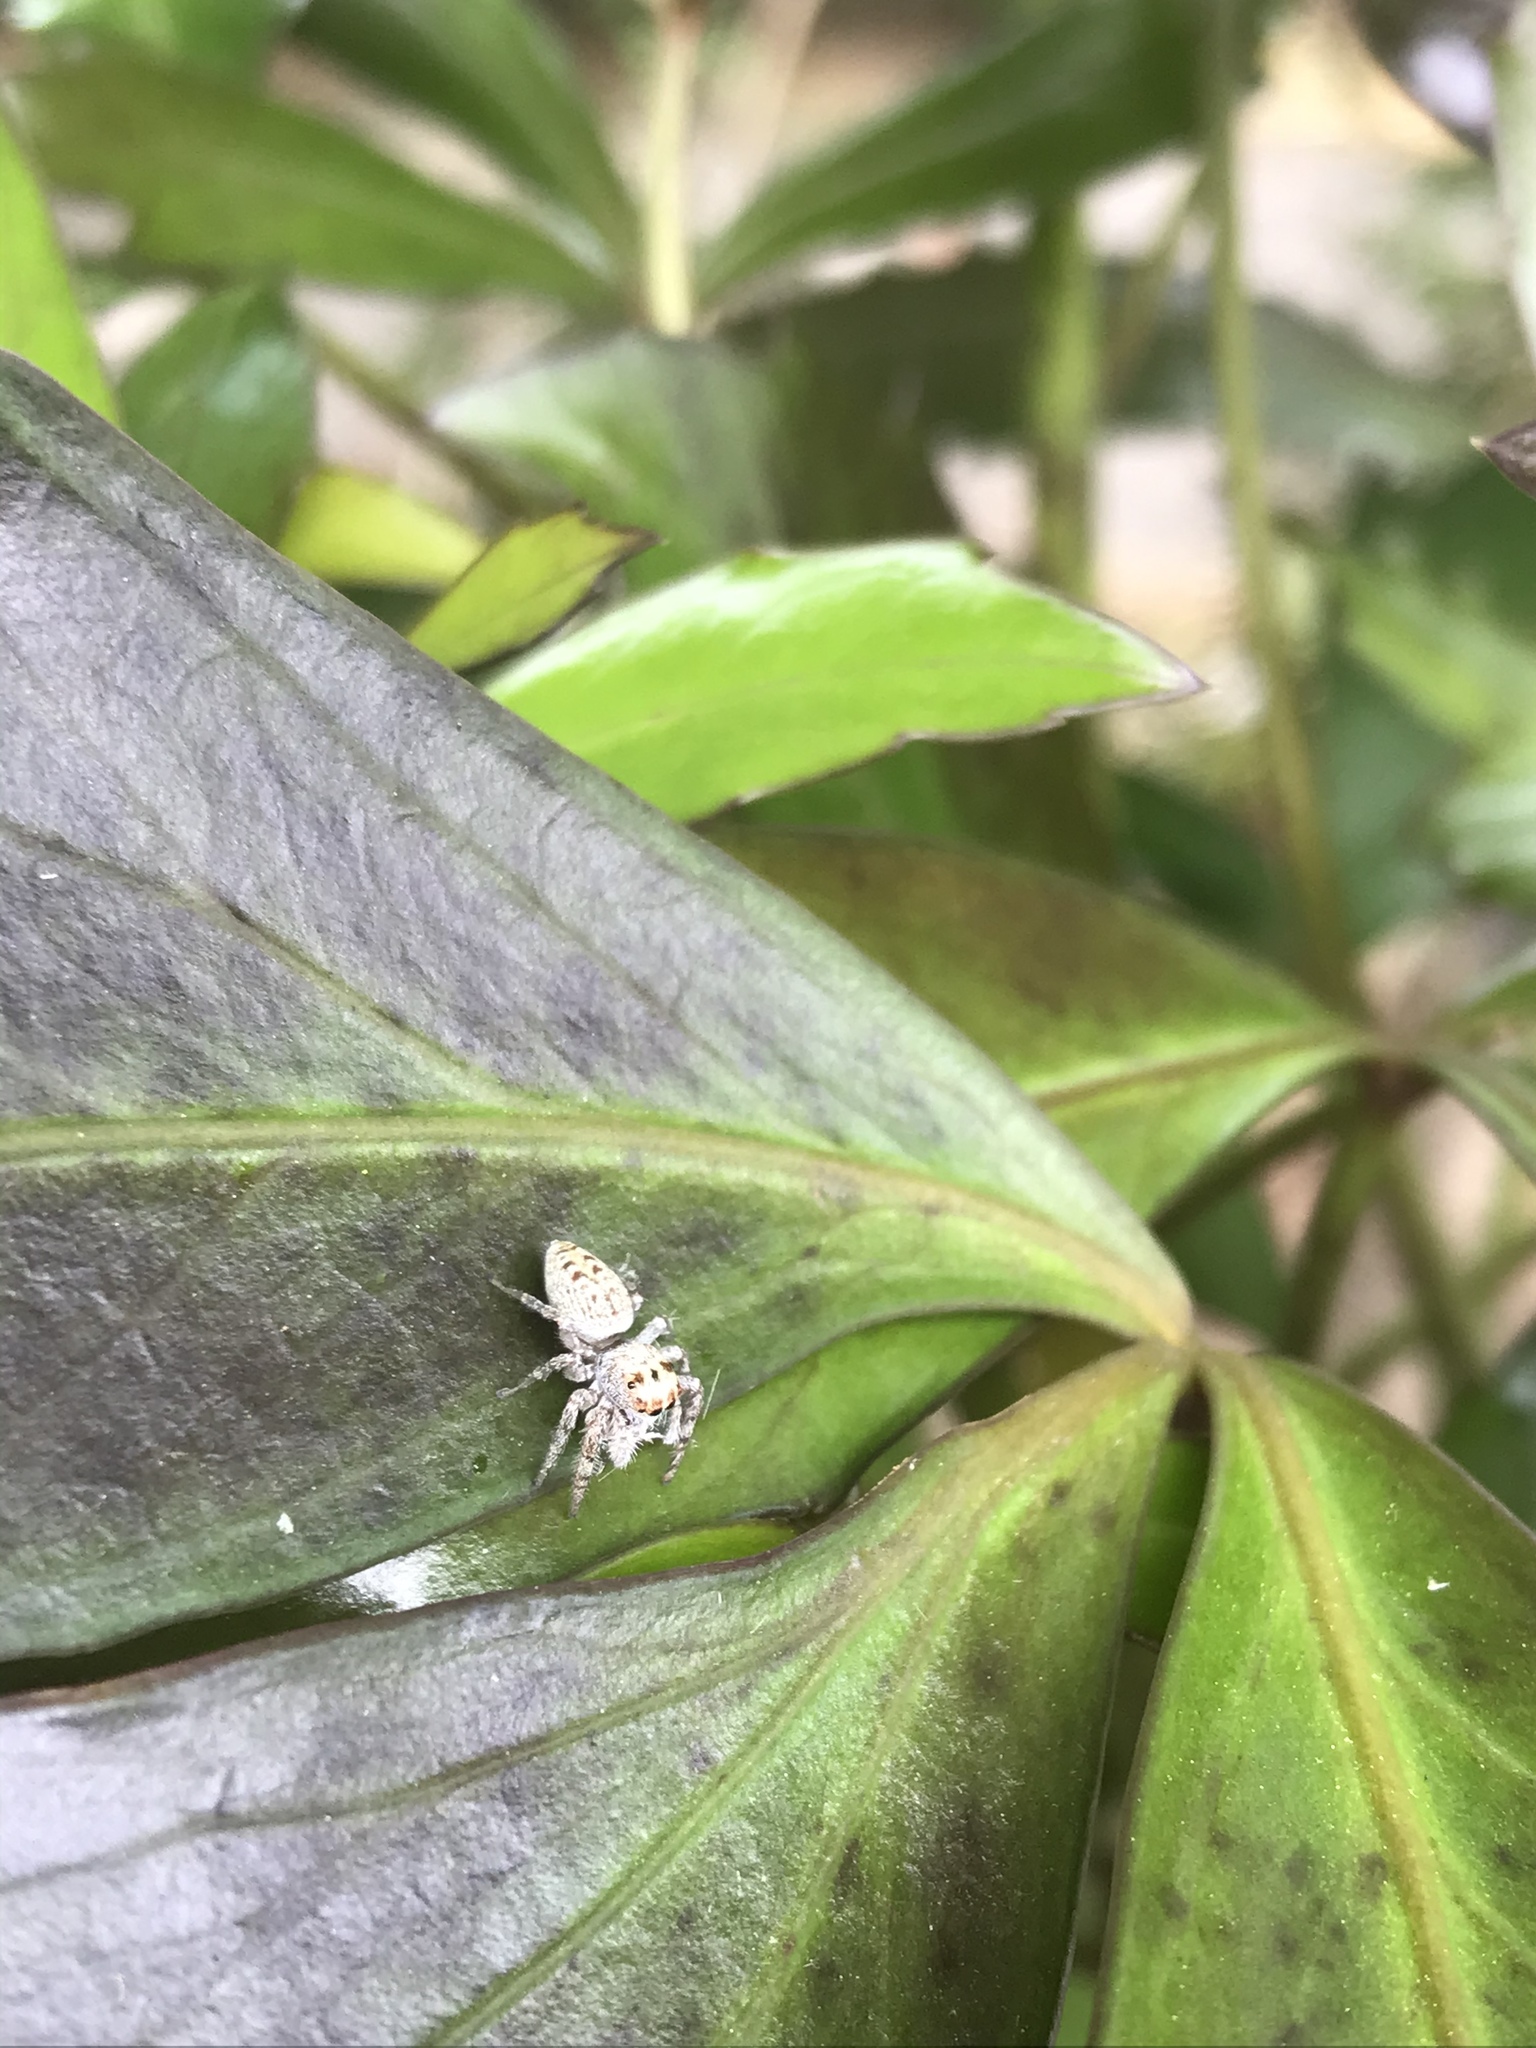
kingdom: Animalia
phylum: Arthropoda
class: Arachnida
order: Araneae
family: Salticidae
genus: Opisthoncus
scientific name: Opisthoncus polyphemus
